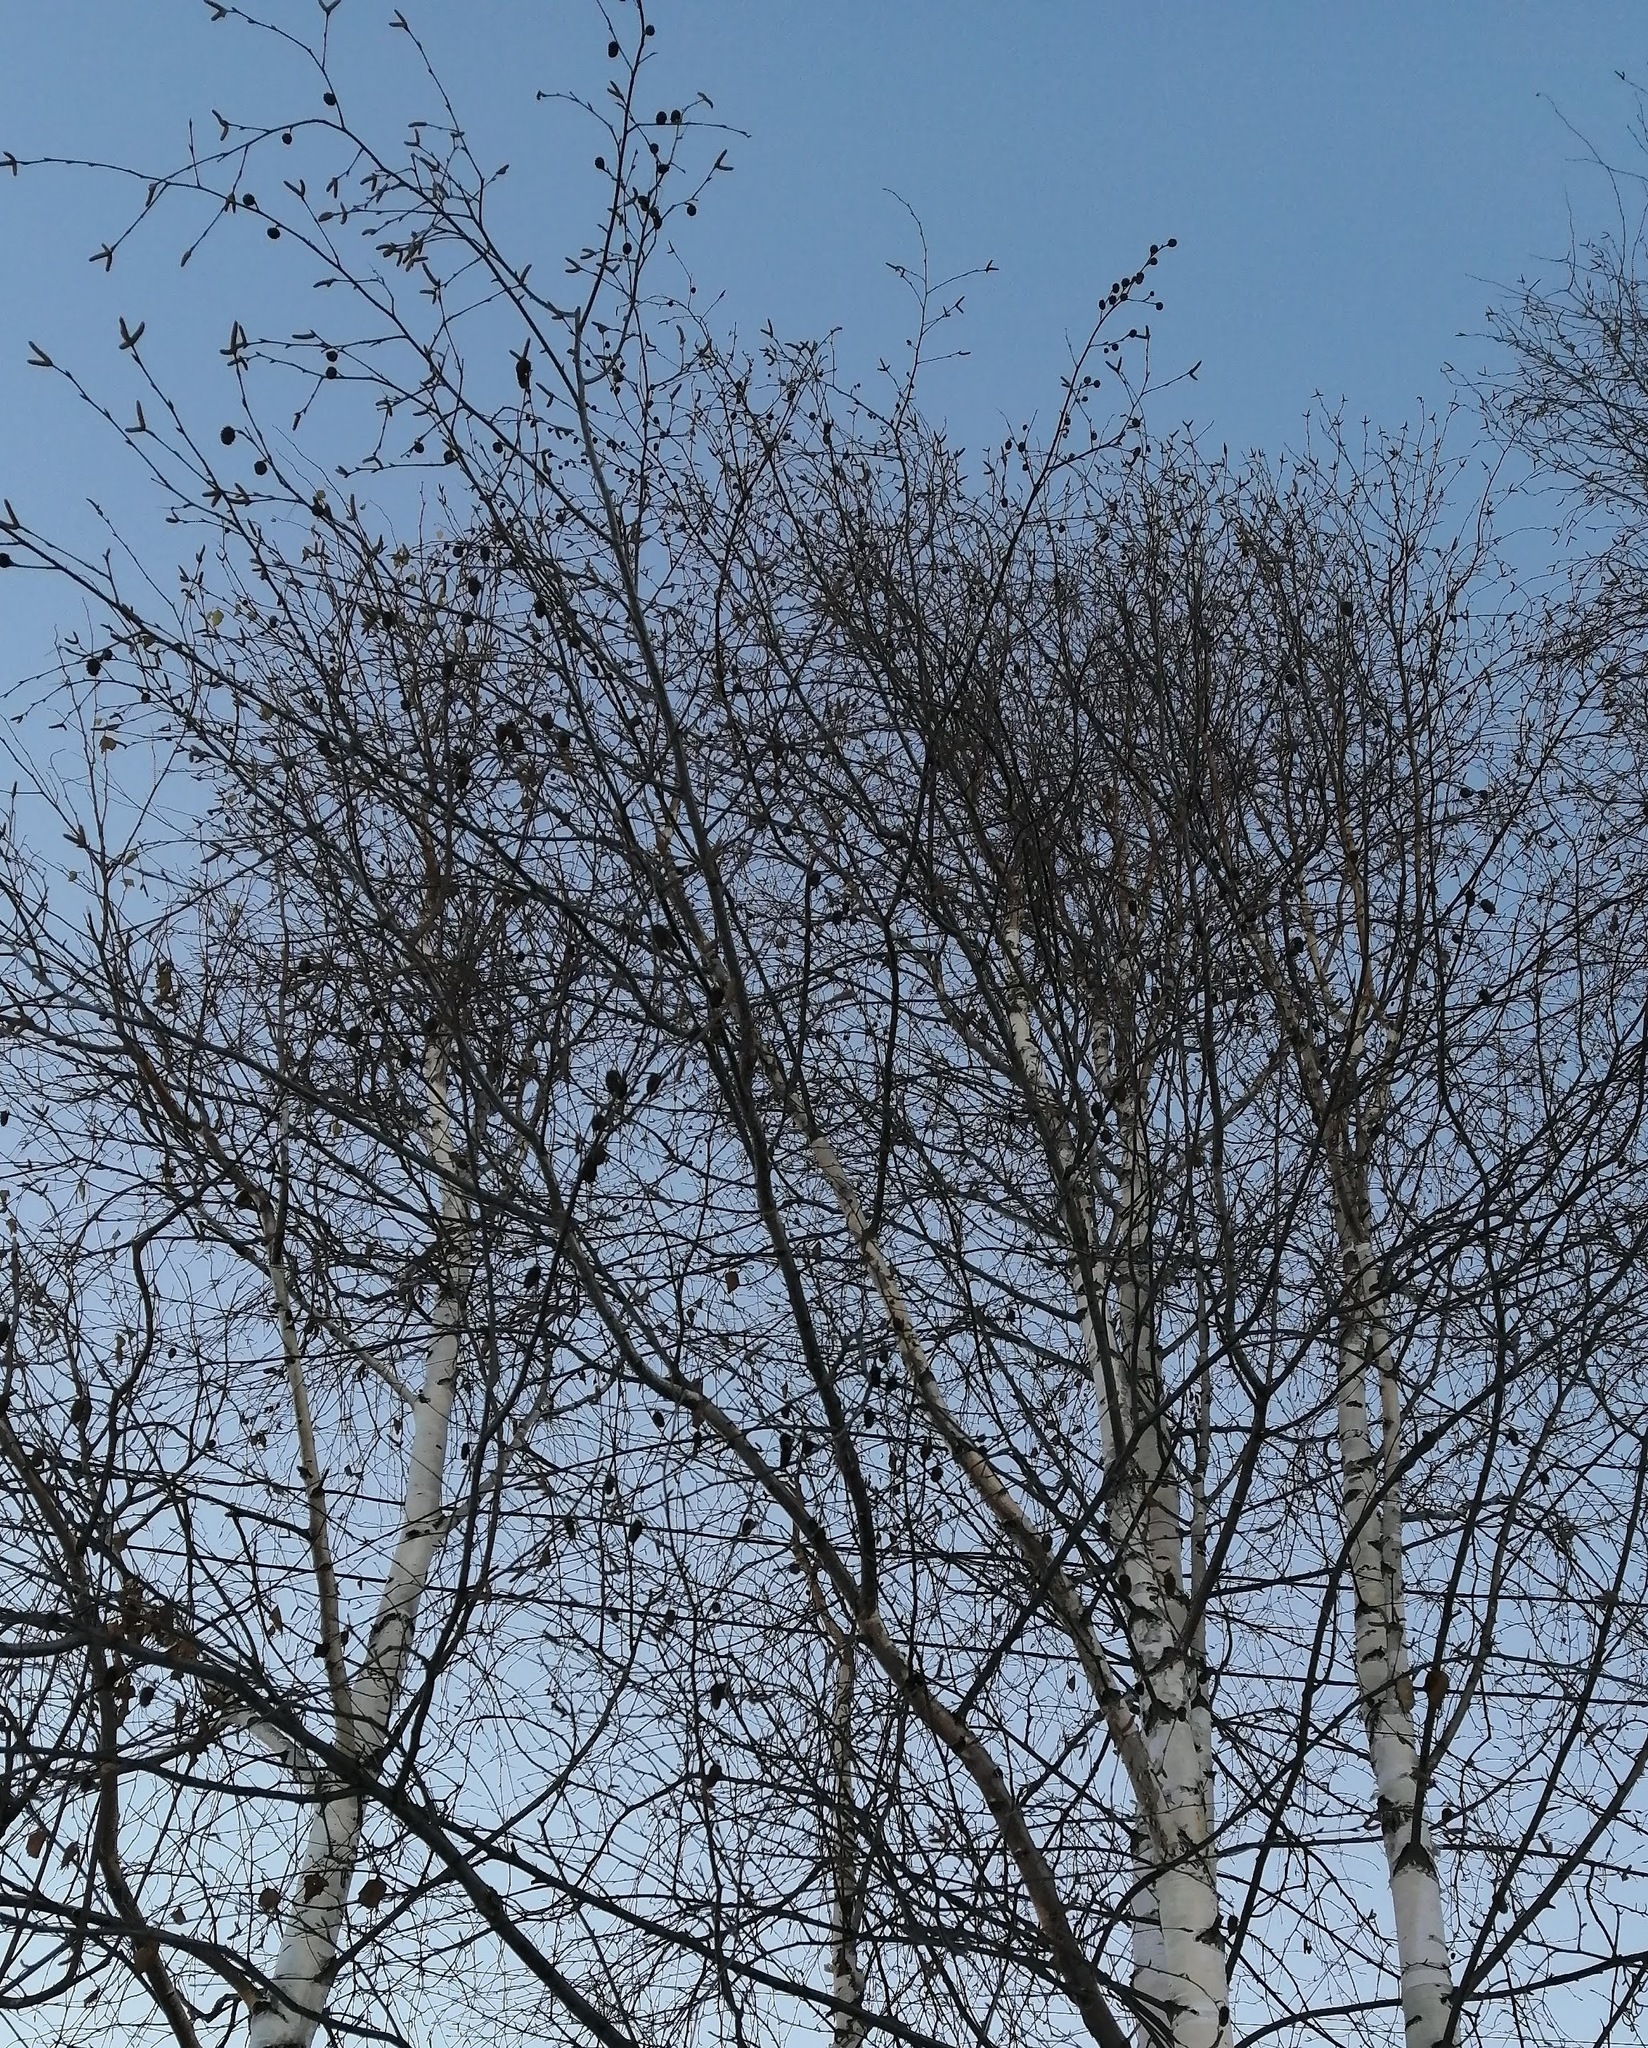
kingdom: Plantae
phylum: Tracheophyta
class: Magnoliopsida
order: Fagales
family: Betulaceae
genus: Betula
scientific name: Betula pubescens
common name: Downy birch
